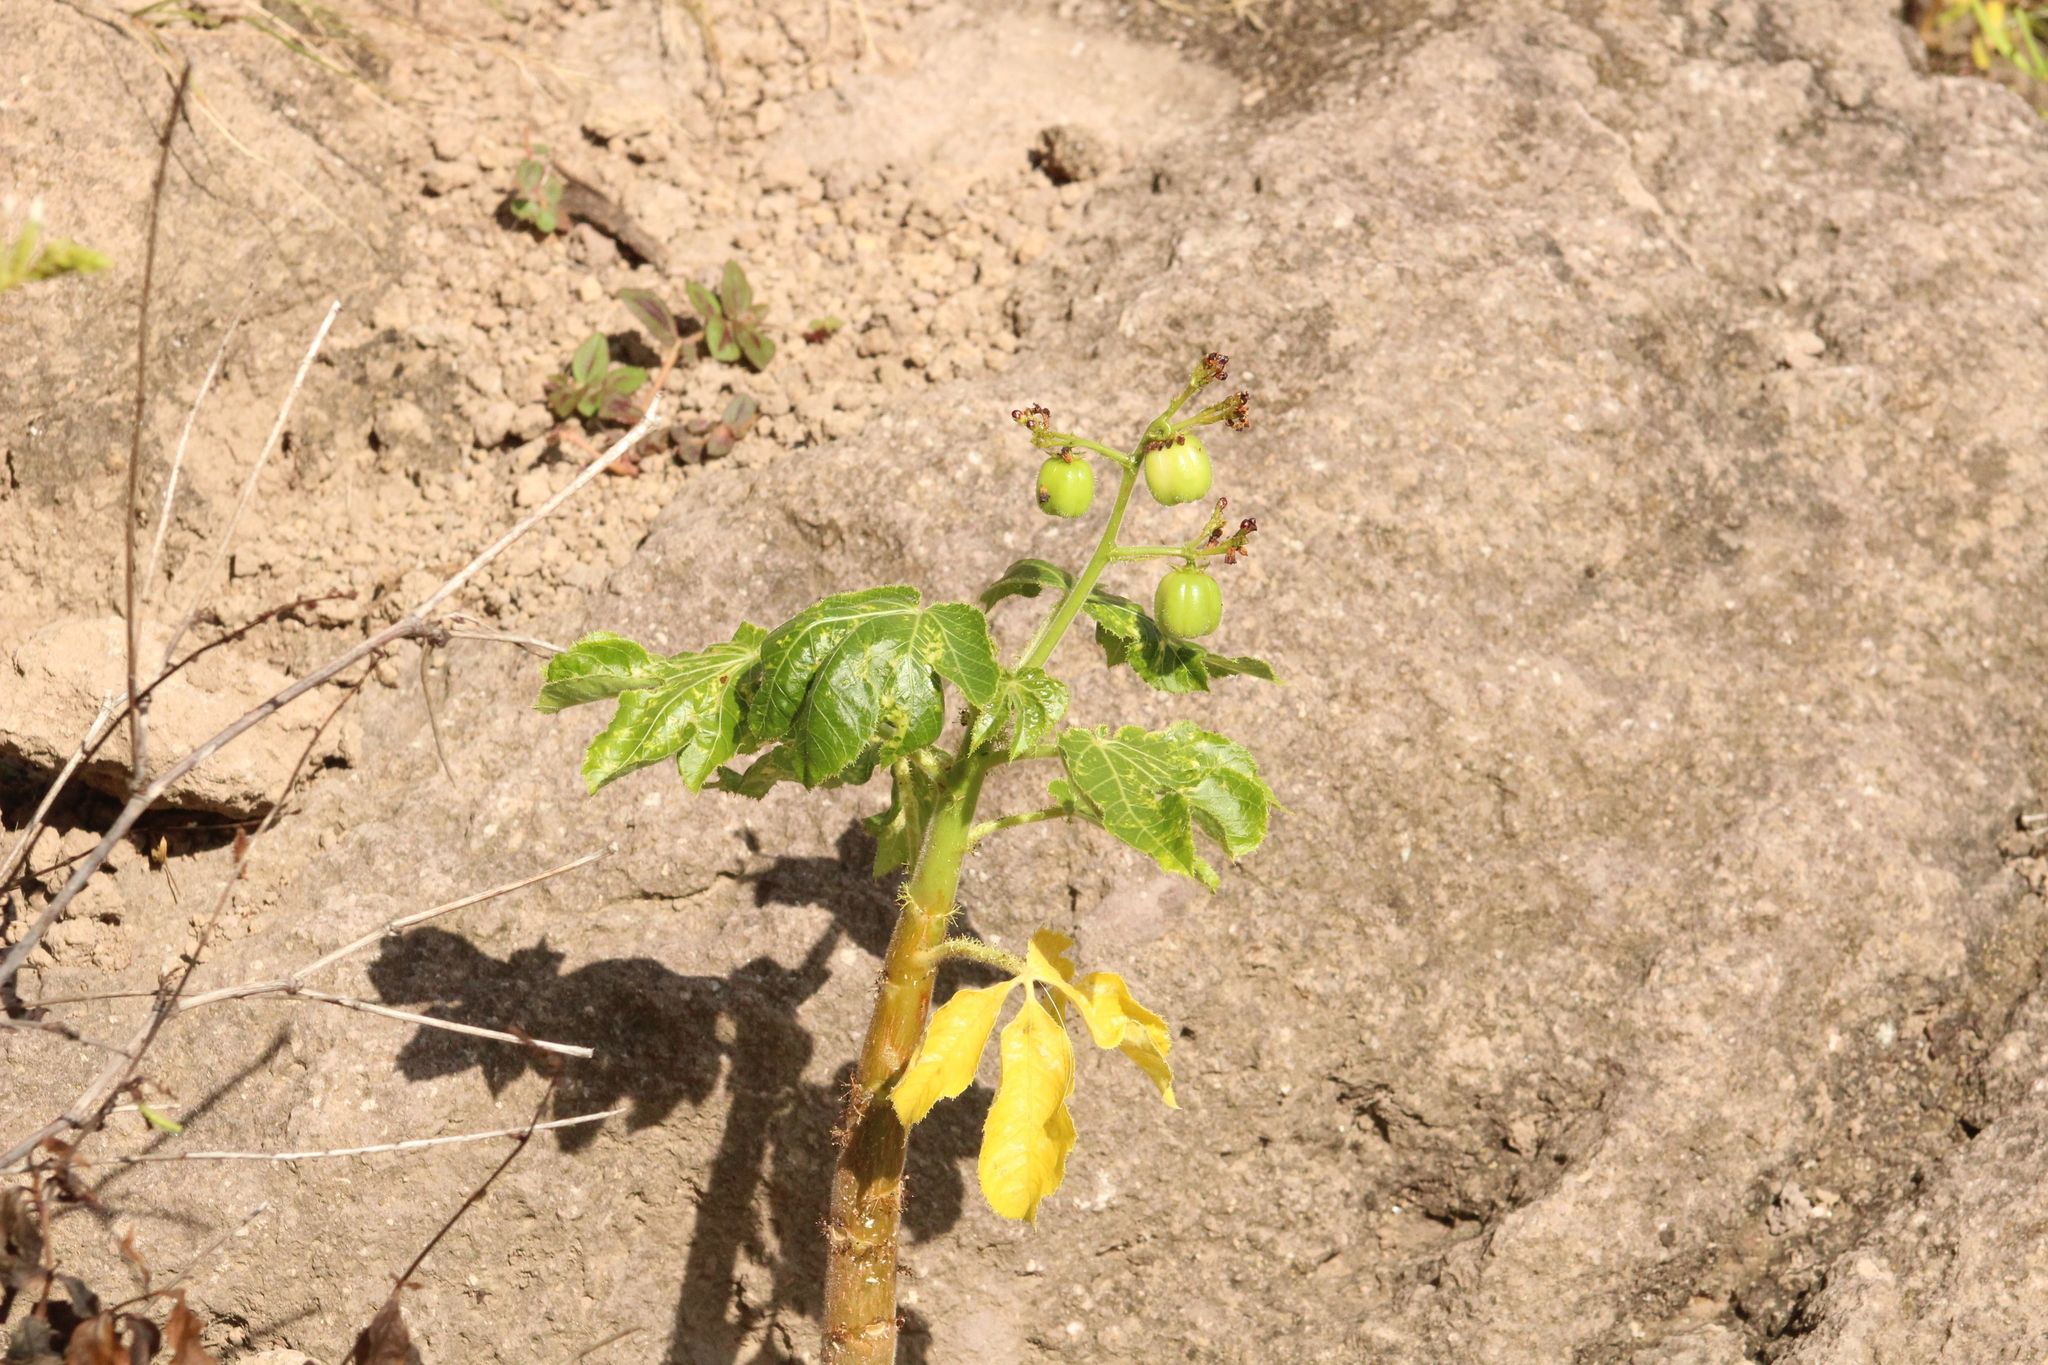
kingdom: Plantae
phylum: Tracheophyta
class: Magnoliopsida
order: Malpighiales
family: Euphorbiaceae
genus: Jatropha
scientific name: Jatropha gossypiifolia
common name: Bellyache bush
